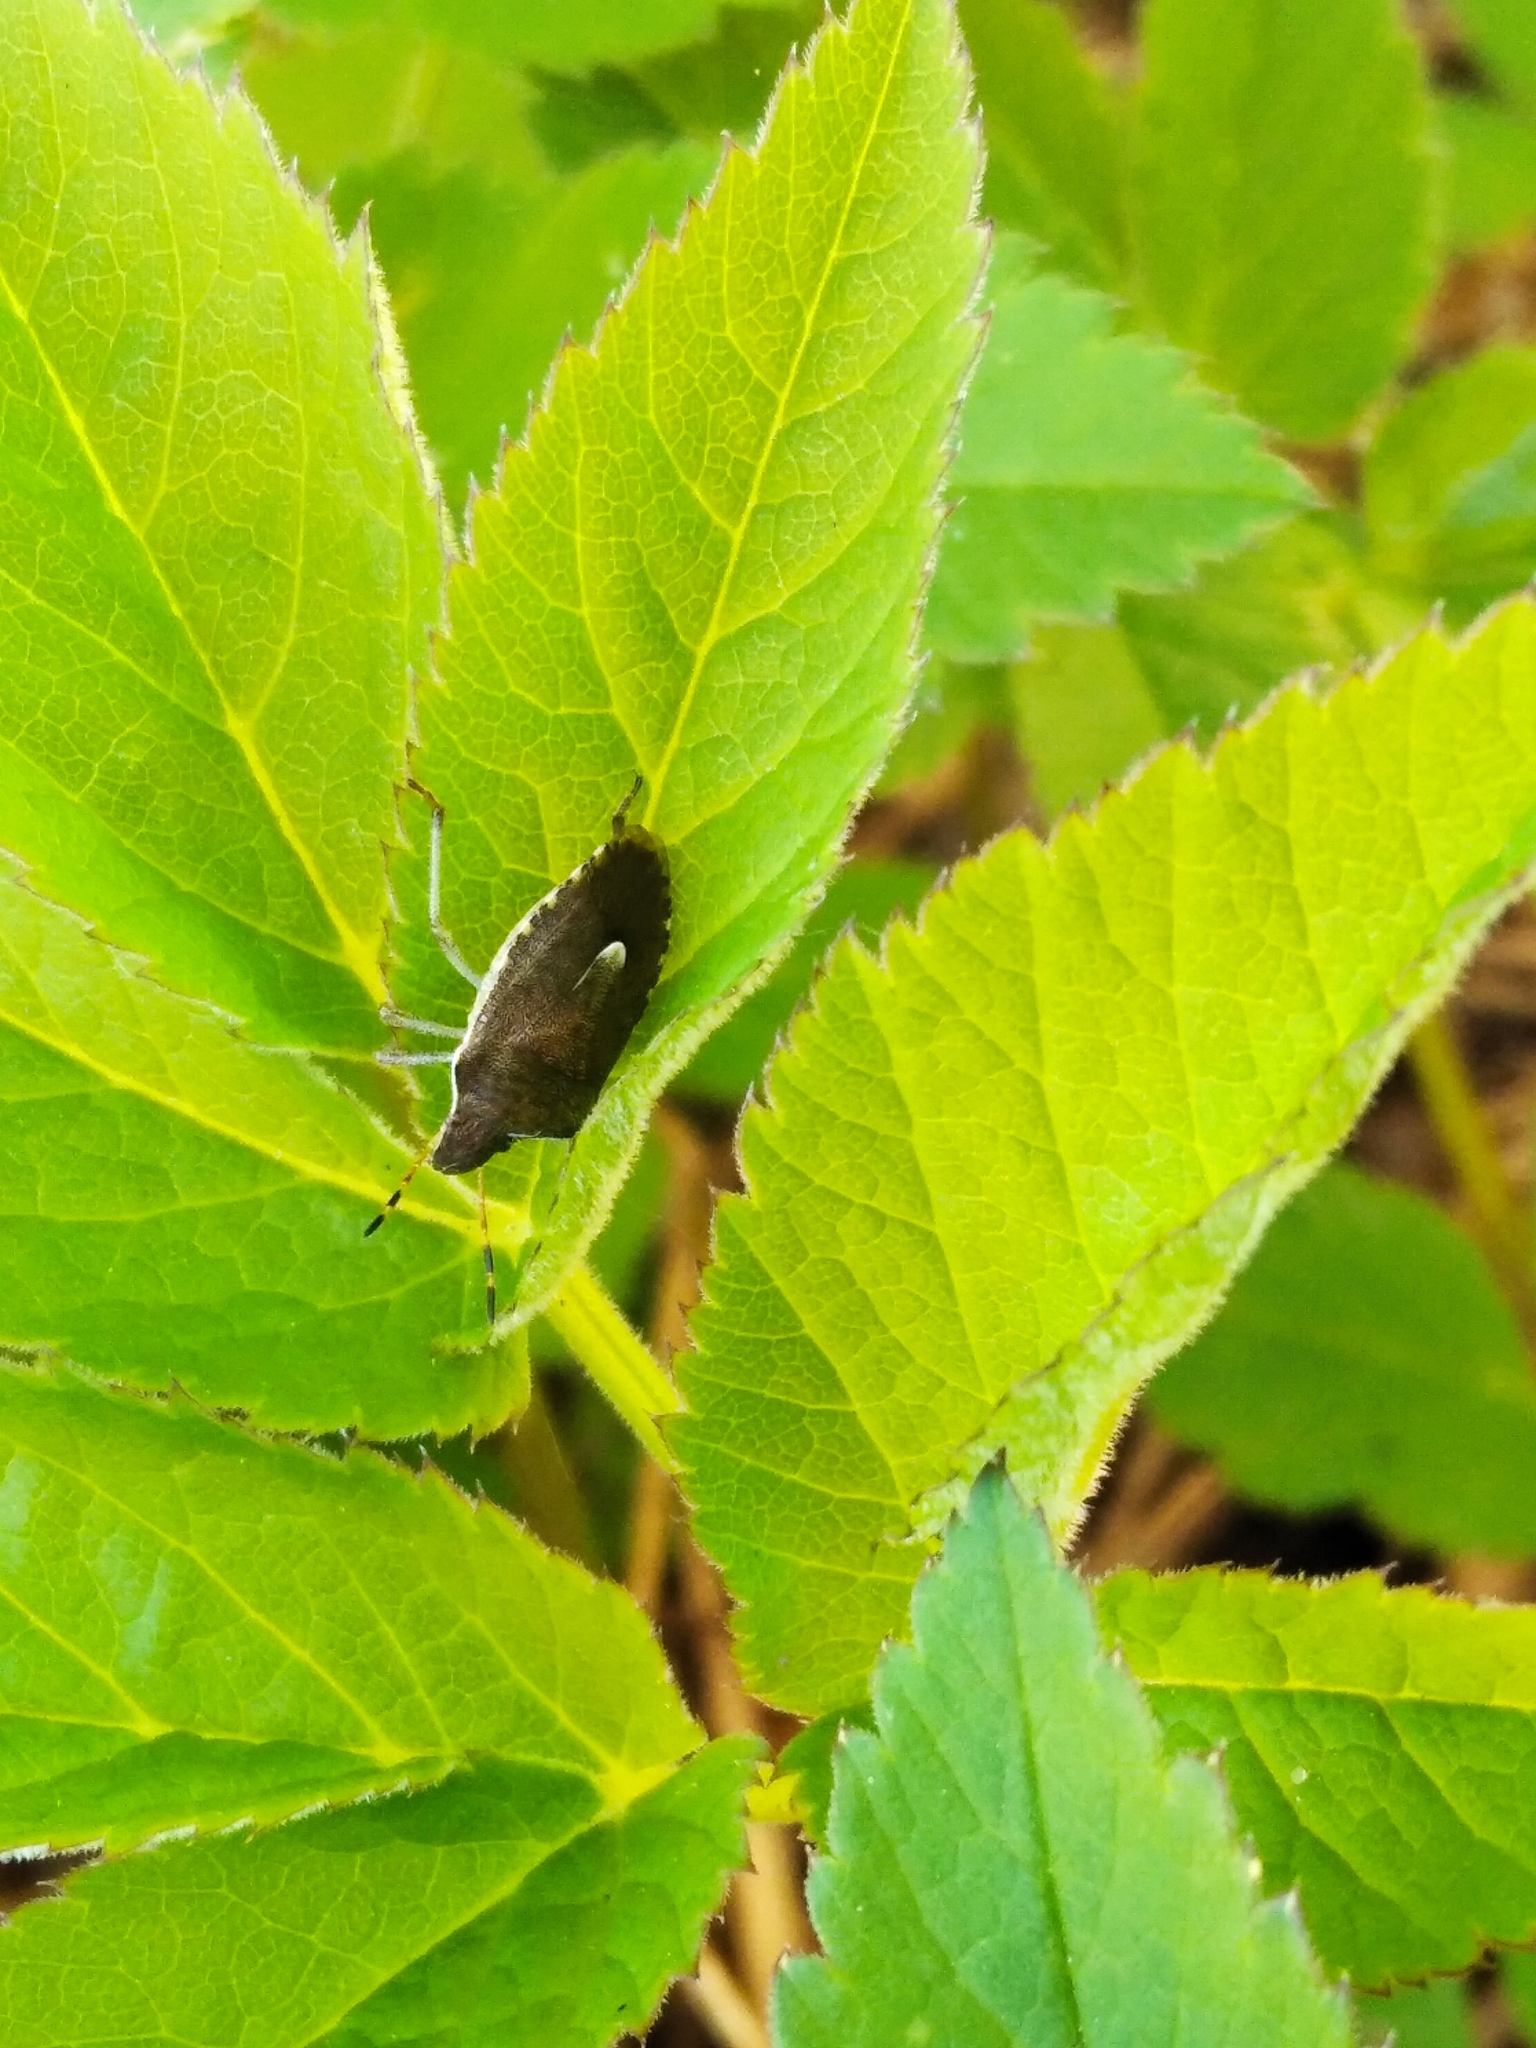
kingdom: Animalia
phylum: Arthropoda
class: Insecta
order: Hemiptera
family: Pentatomidae
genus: Holcostethus
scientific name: Holcostethus strictus
